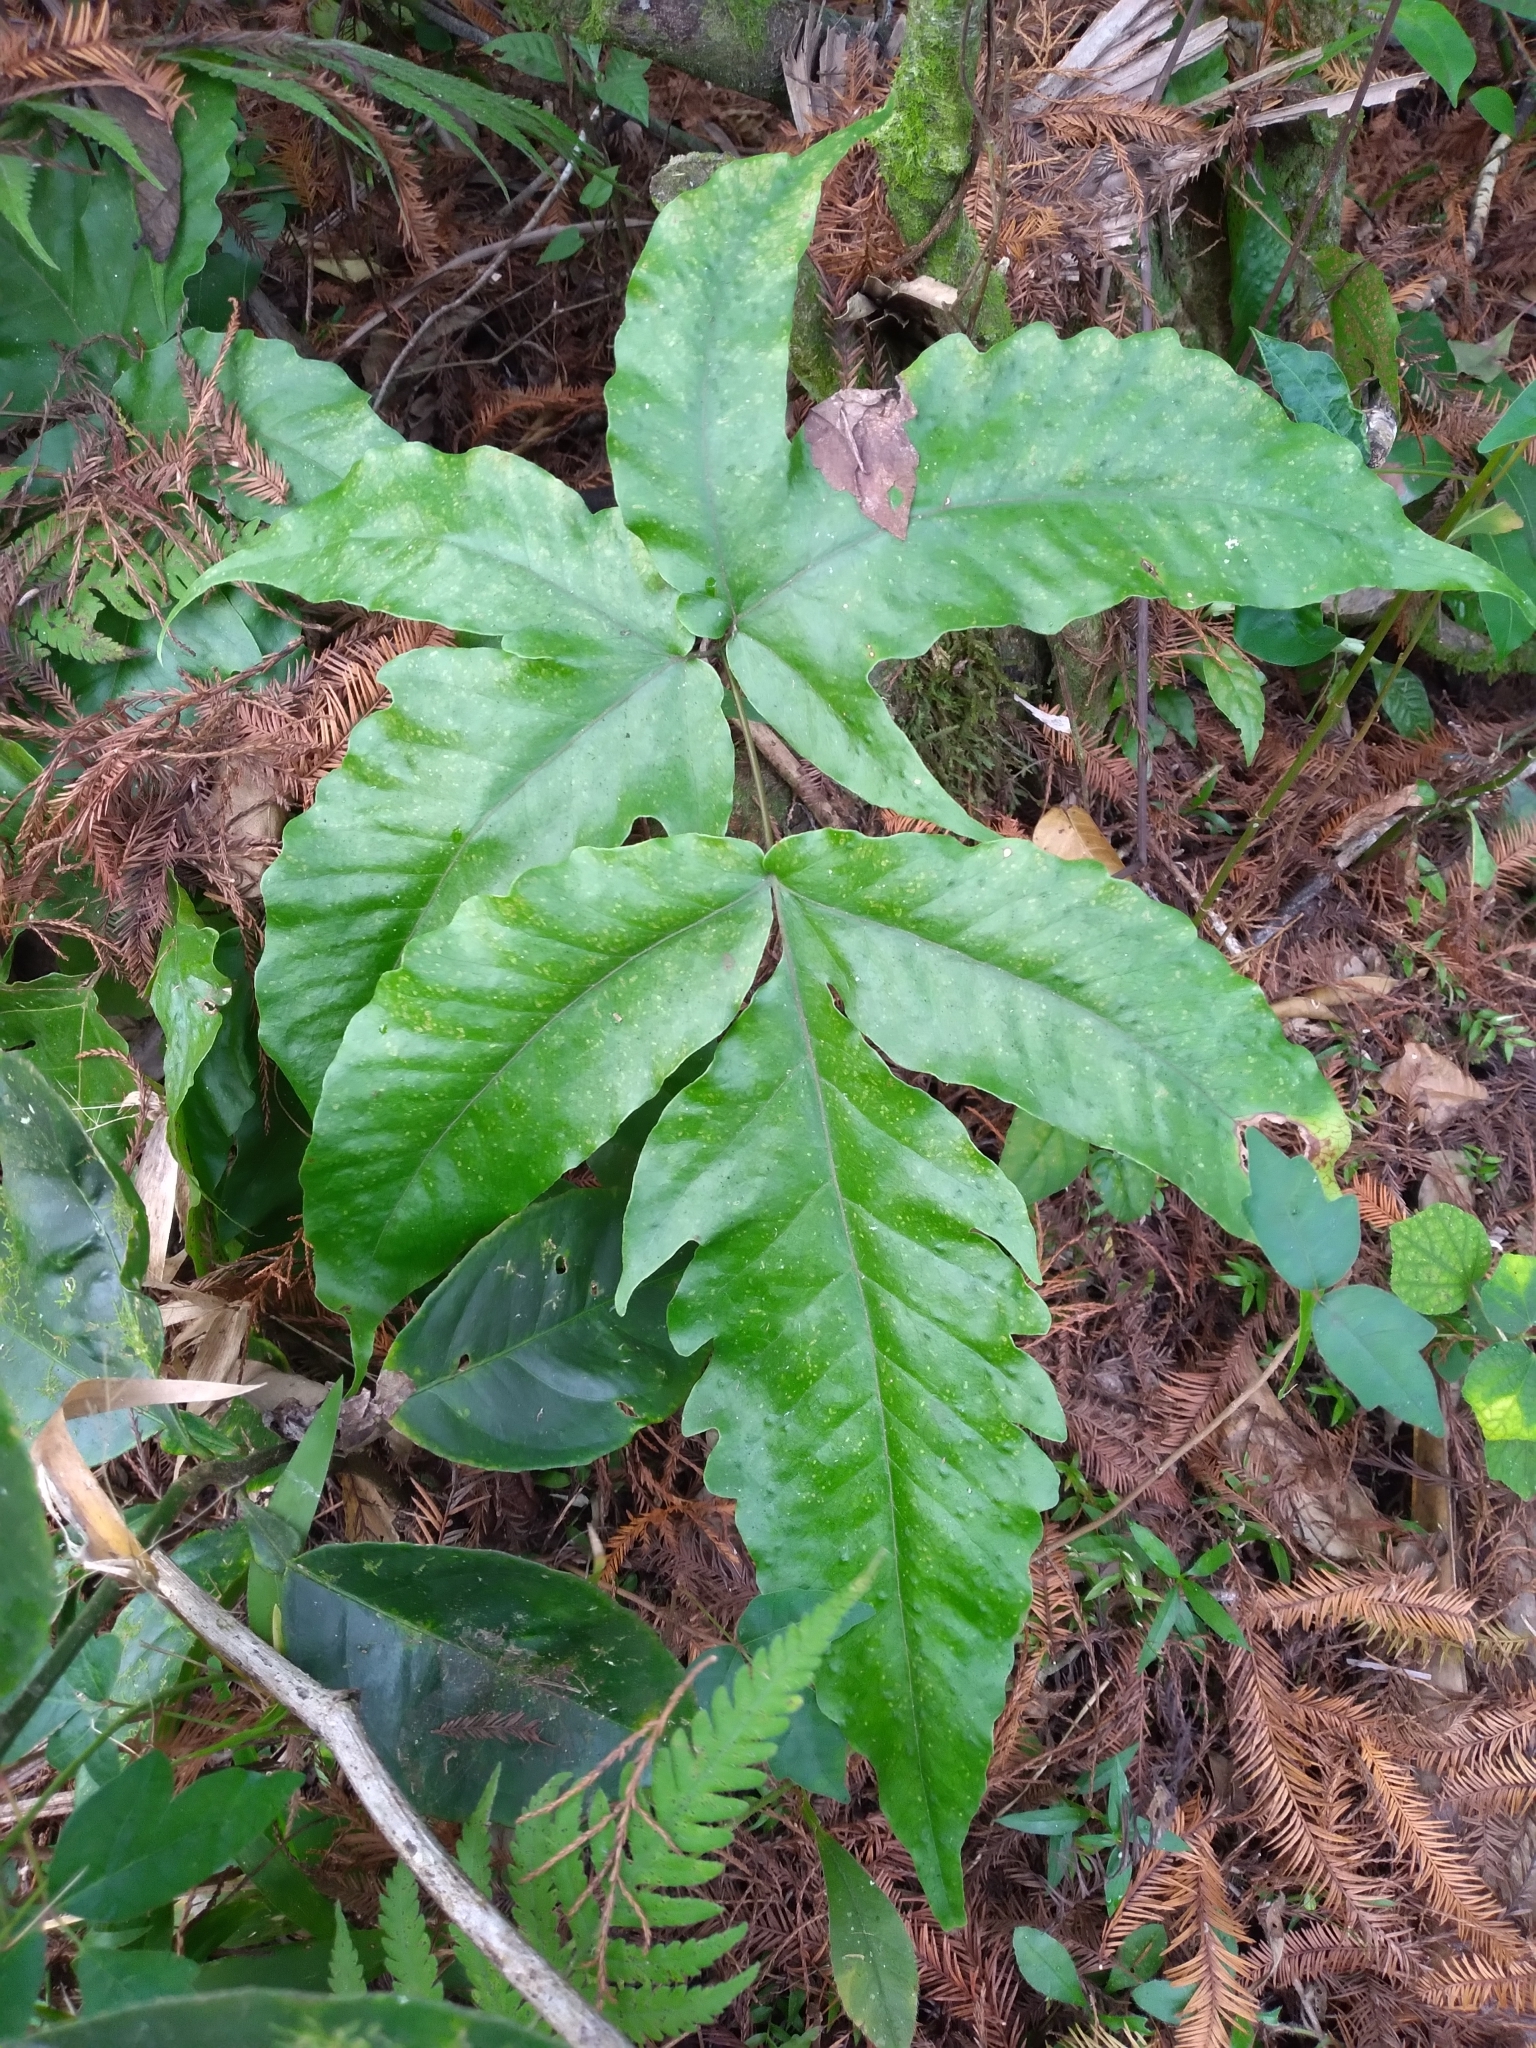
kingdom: Plantae
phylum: Tracheophyta
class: Polypodiopsida
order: Polypodiales
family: Tectariaceae
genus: Tectaria
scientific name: Tectaria heracleifolia
